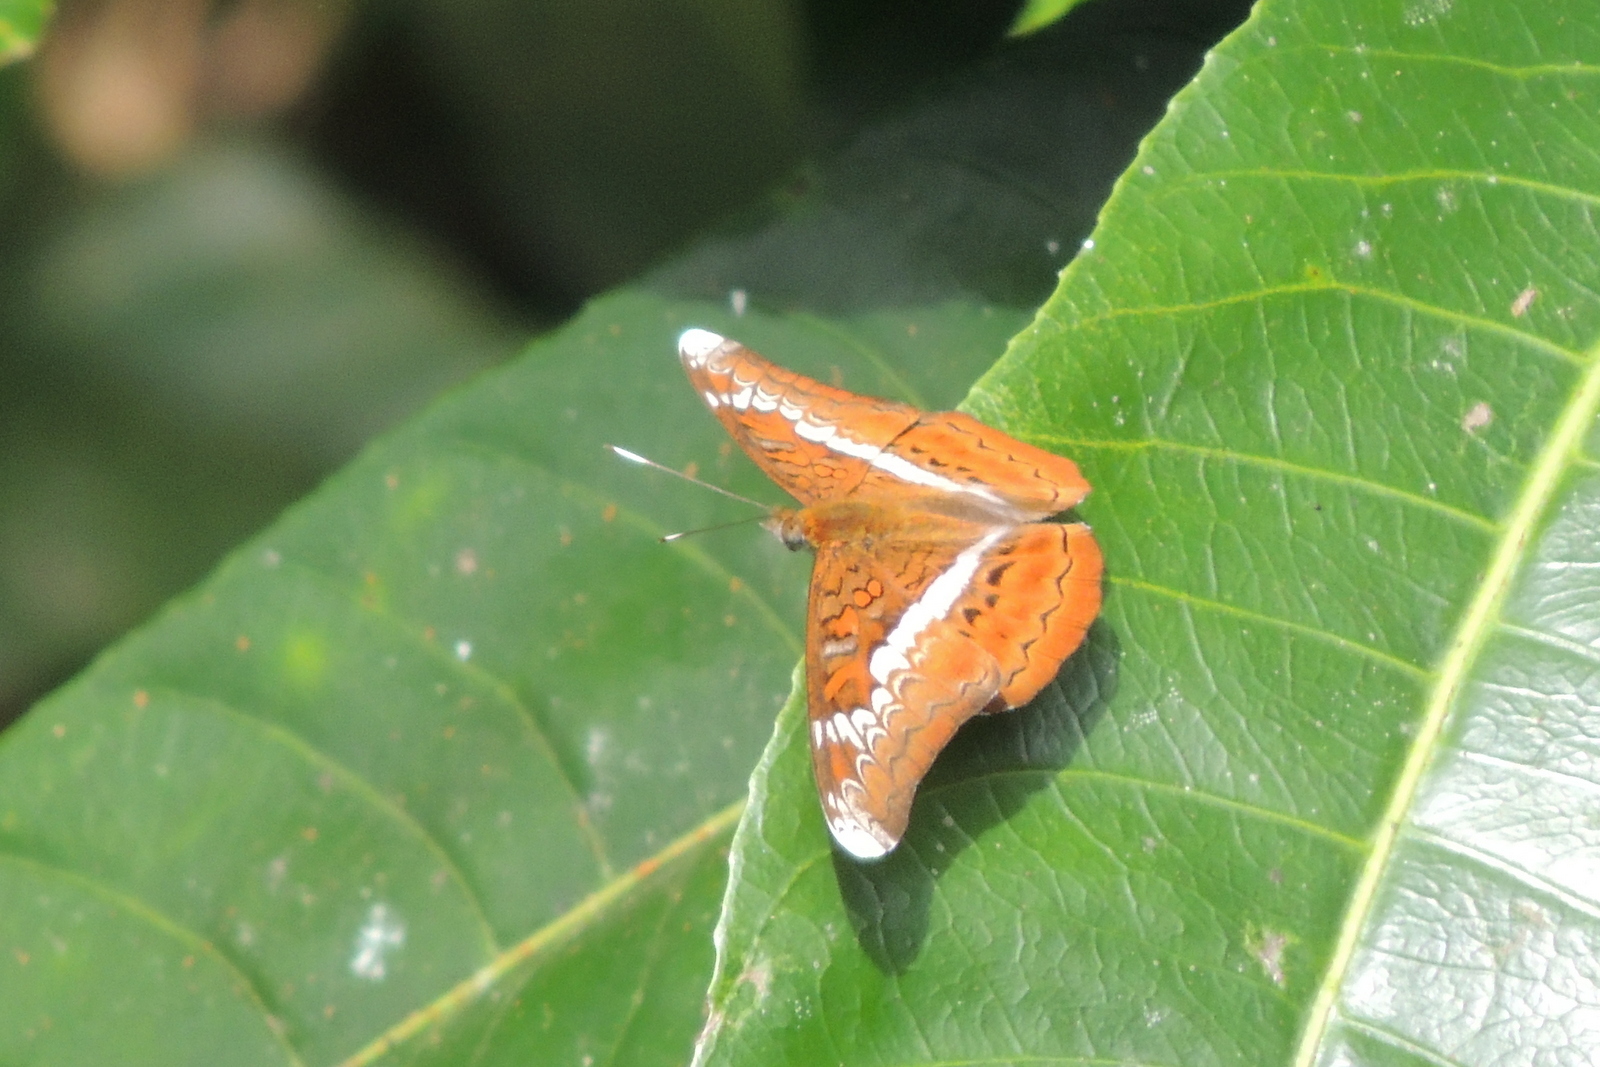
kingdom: Animalia
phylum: Arthropoda
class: Insecta
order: Lepidoptera
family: Nymphalidae
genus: Lebadea
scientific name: Lebadea martha
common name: Knight
